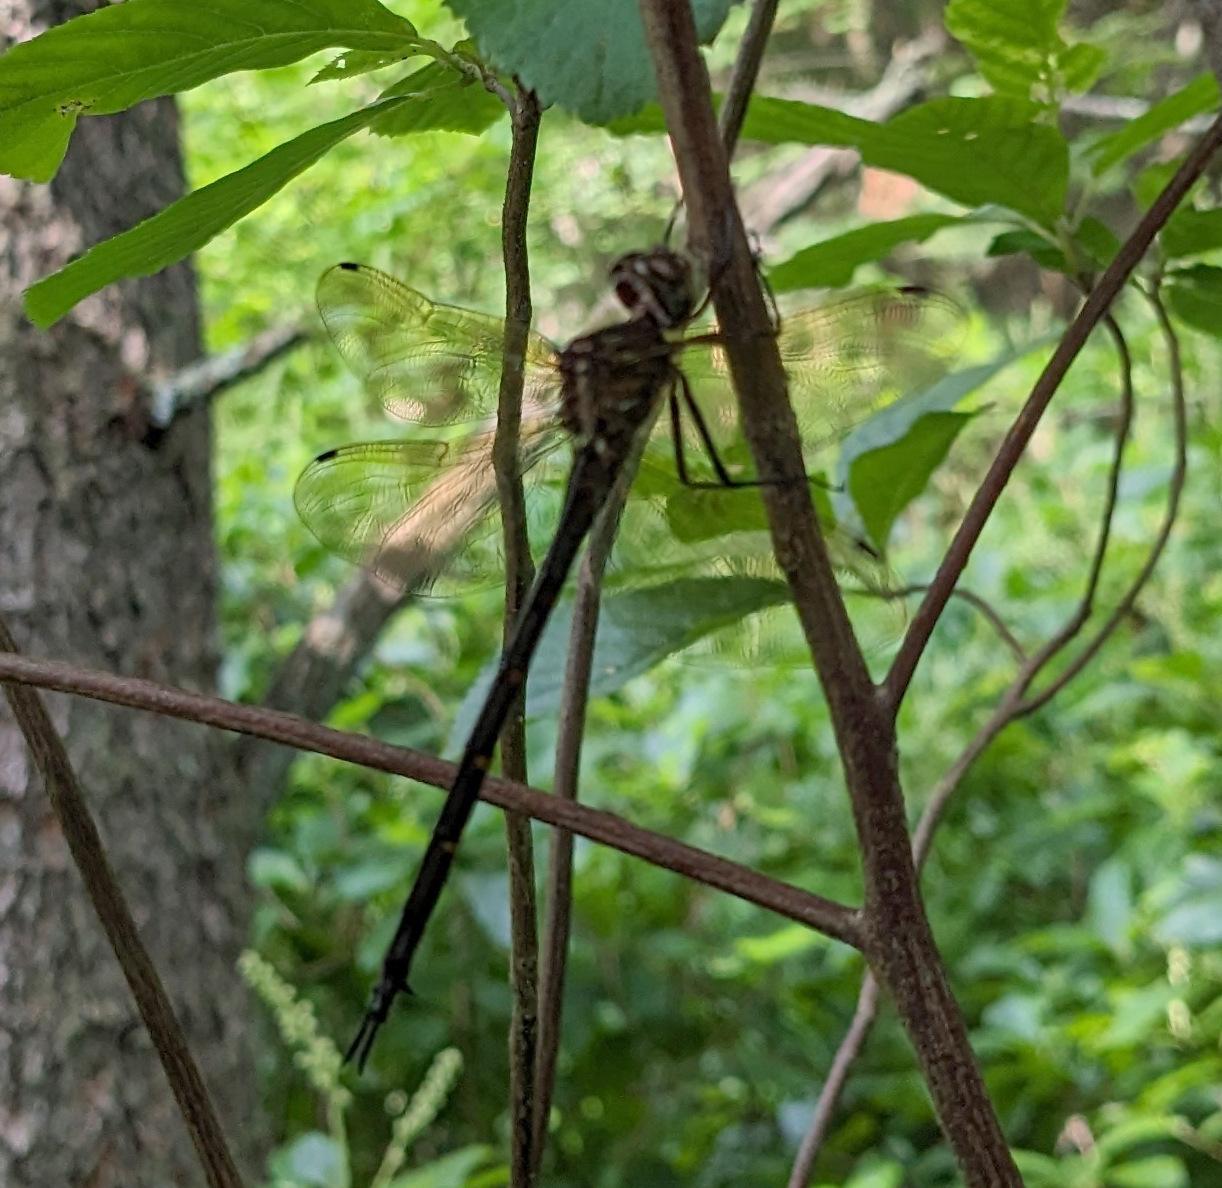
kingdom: Animalia
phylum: Arthropoda
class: Insecta
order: Odonata
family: Corduliidae
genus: Somatochlora
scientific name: Somatochlora linearis
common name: Mocha emerald
